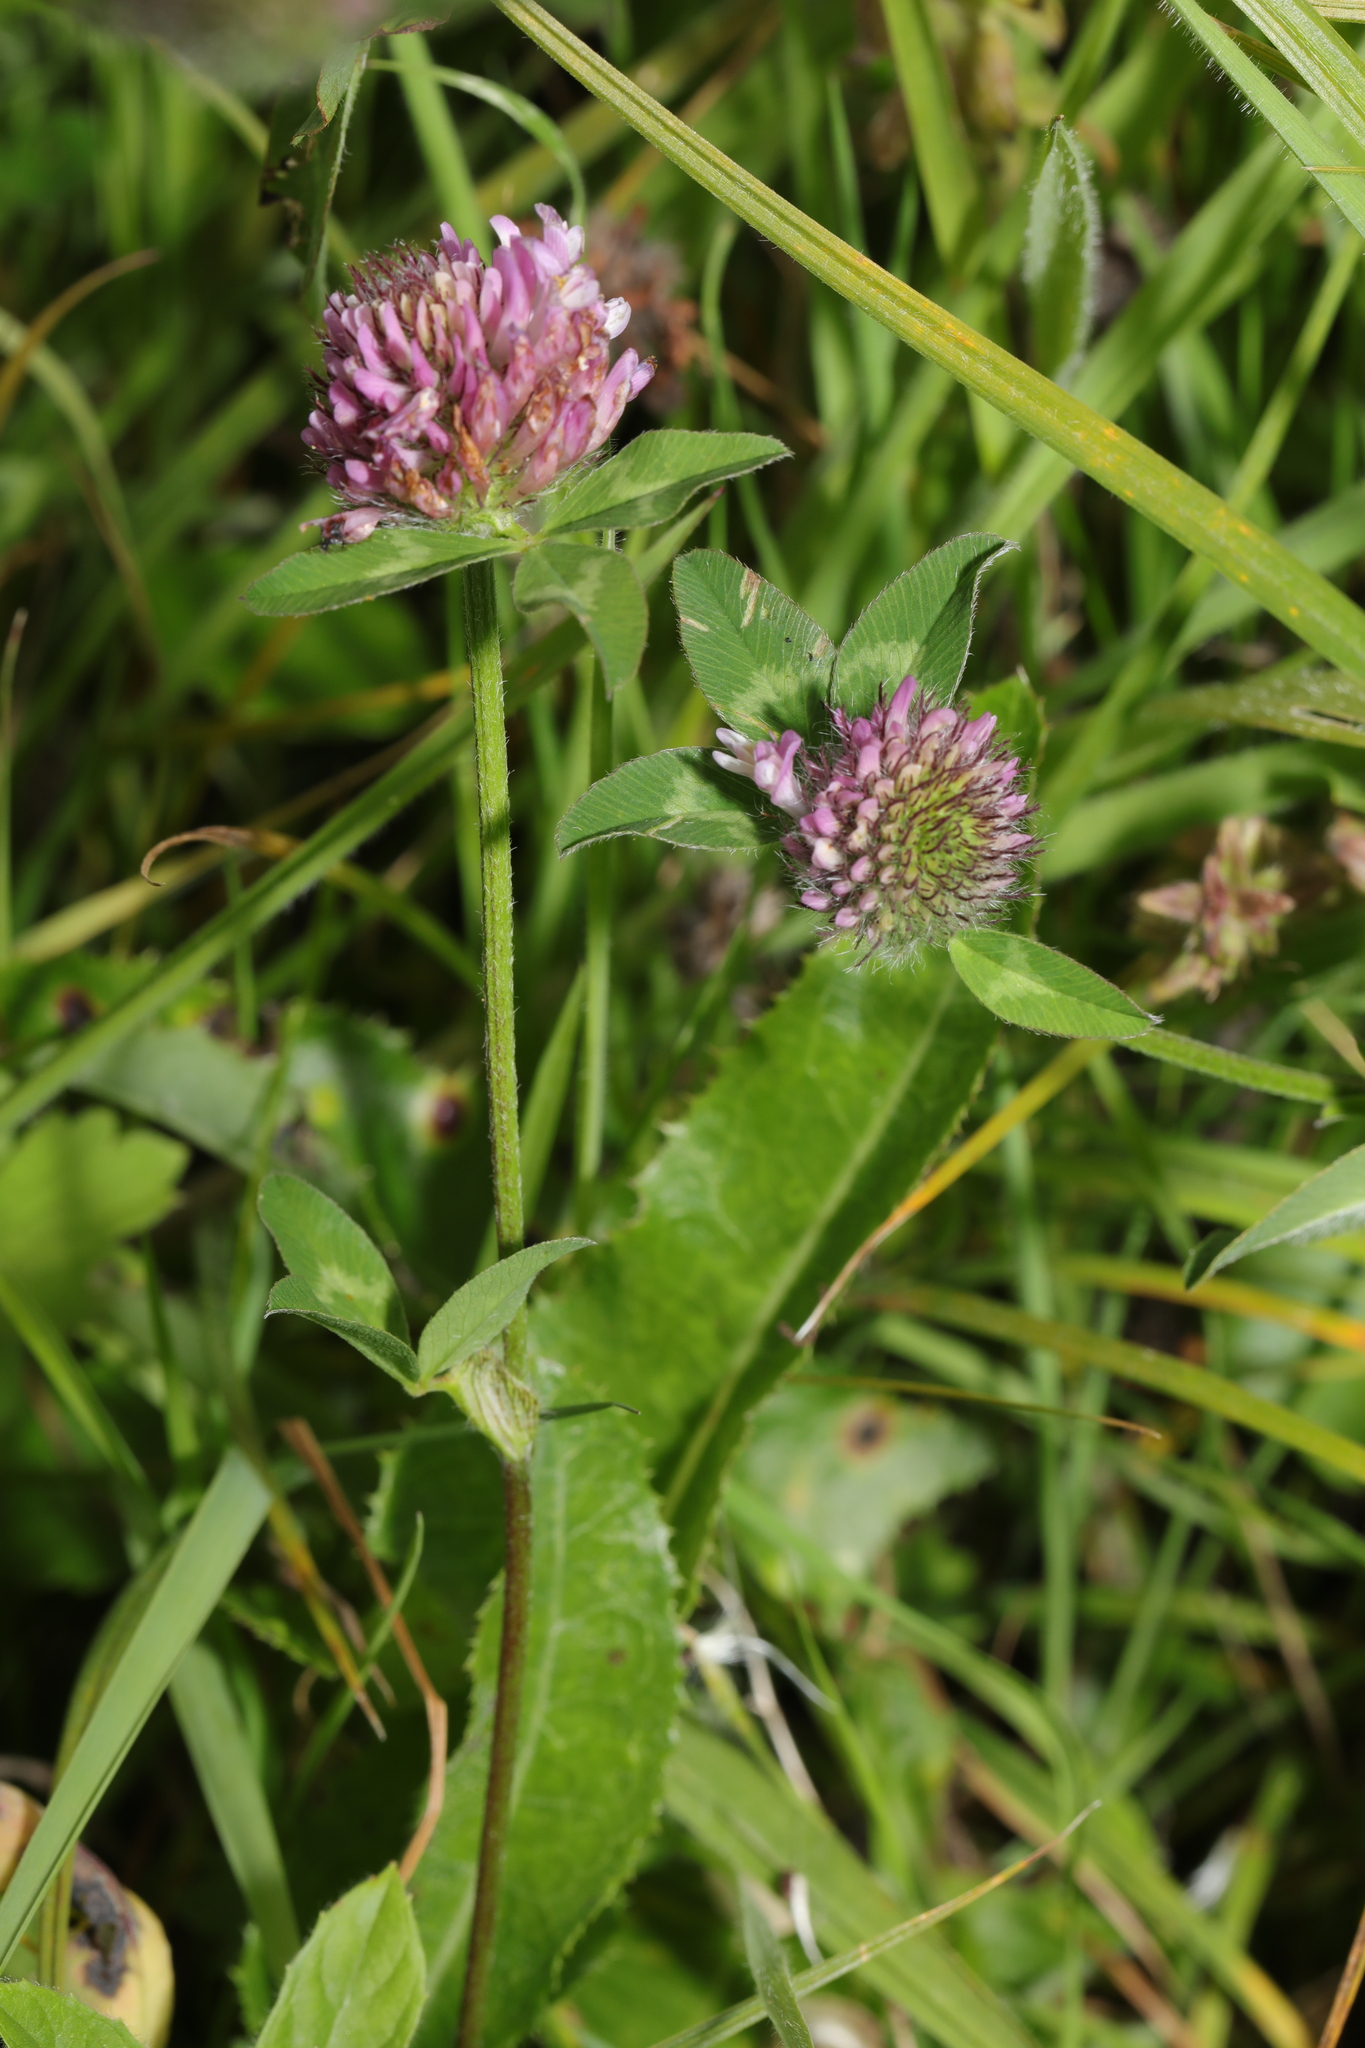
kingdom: Plantae
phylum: Tracheophyta
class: Magnoliopsida
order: Fabales
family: Fabaceae
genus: Trifolium
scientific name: Trifolium pratense
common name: Red clover
